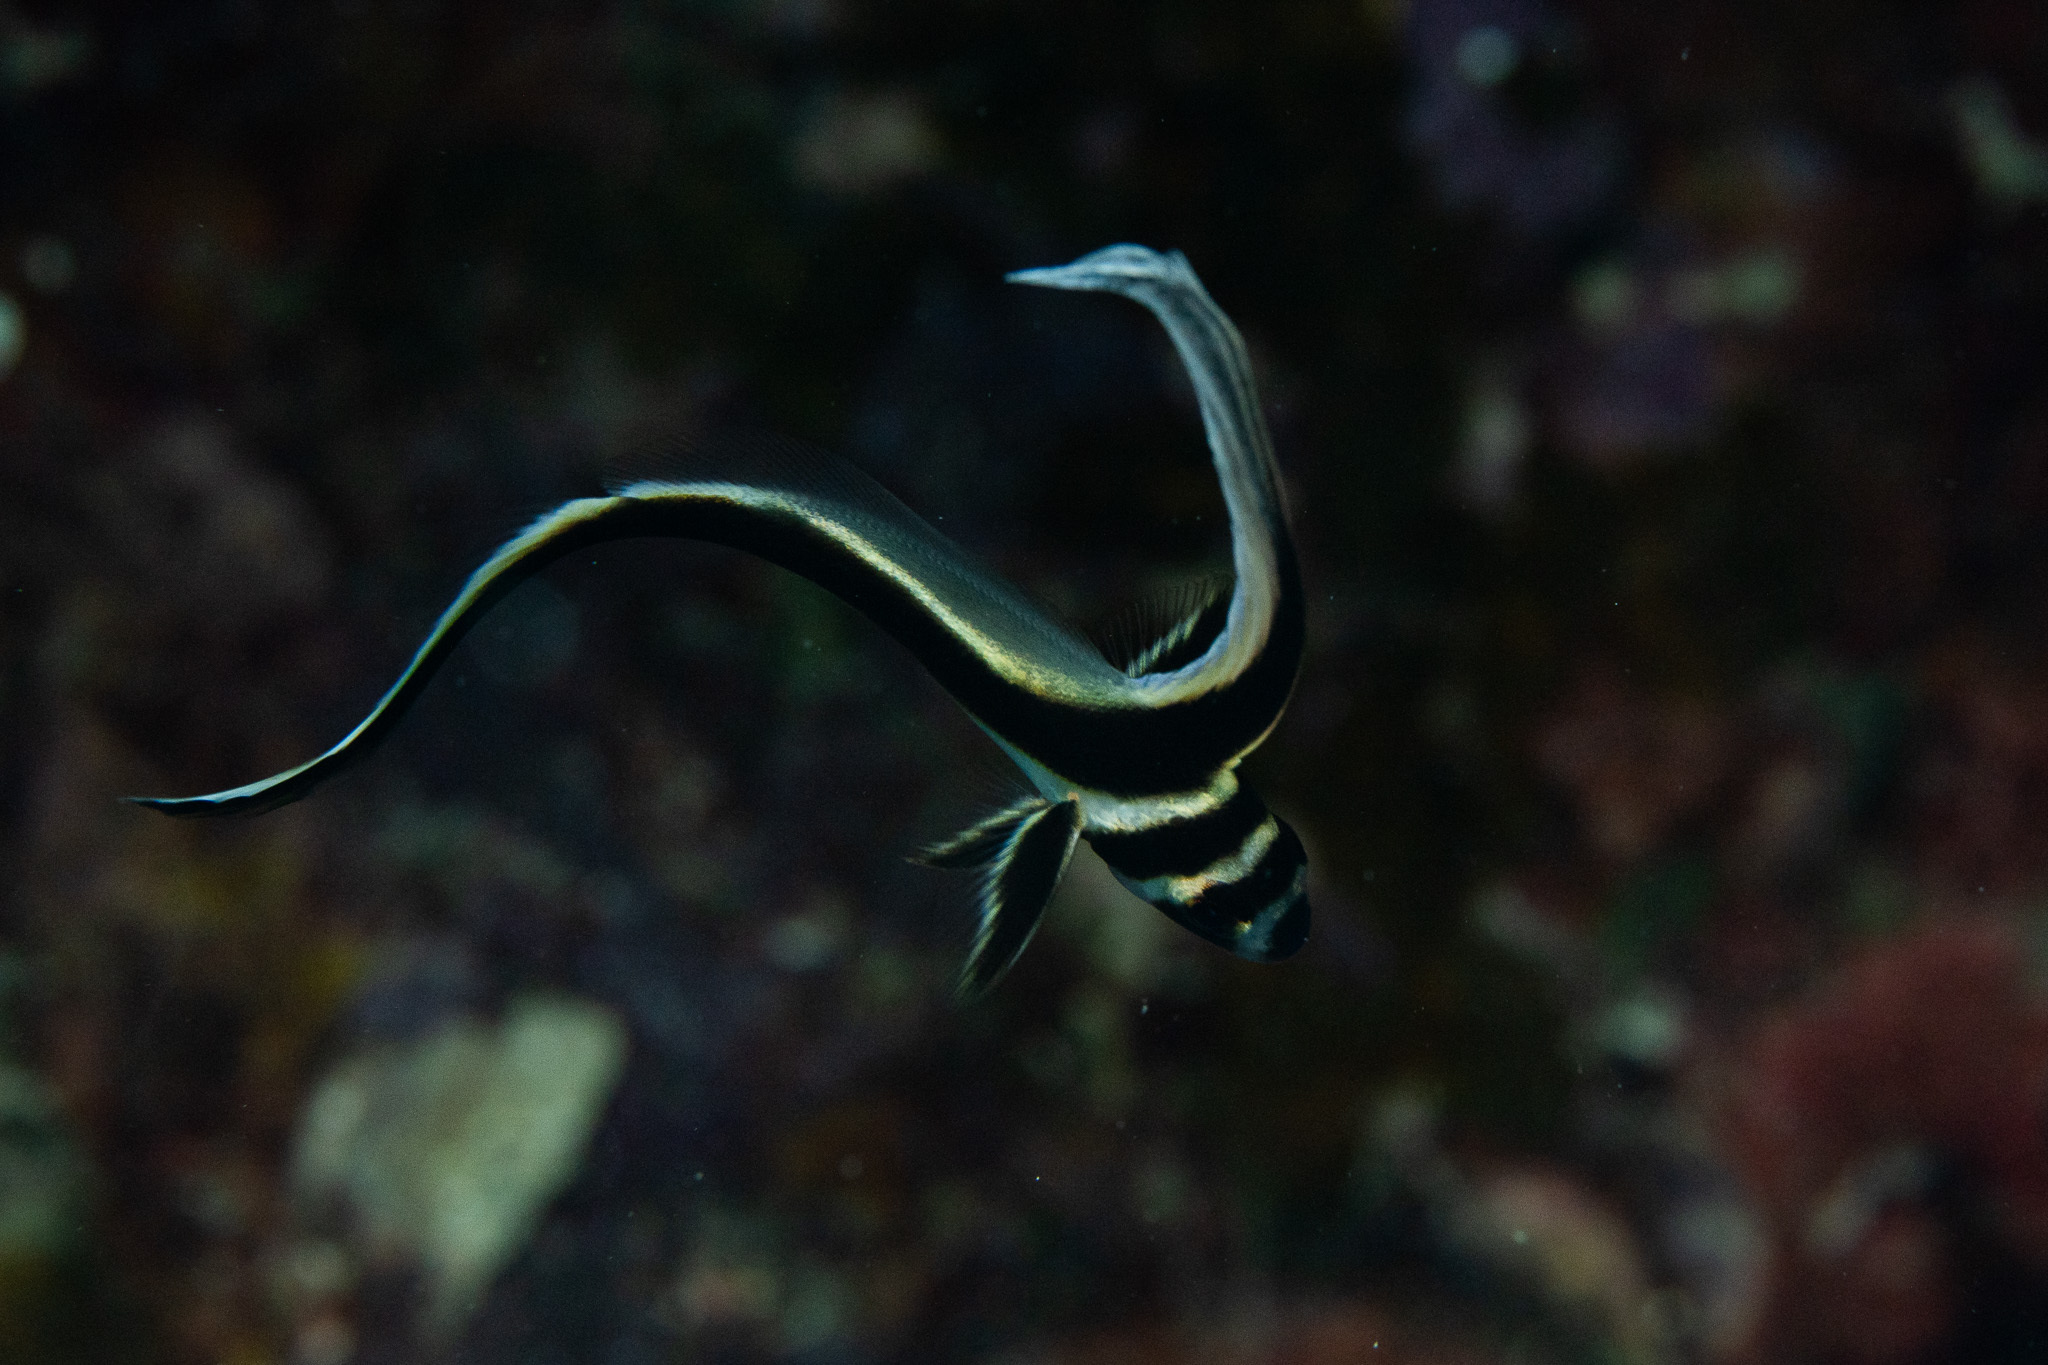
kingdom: Animalia
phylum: Chordata
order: Perciformes
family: Sciaenidae
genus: Equetus
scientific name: Equetus punctatus
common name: Spotted drum
